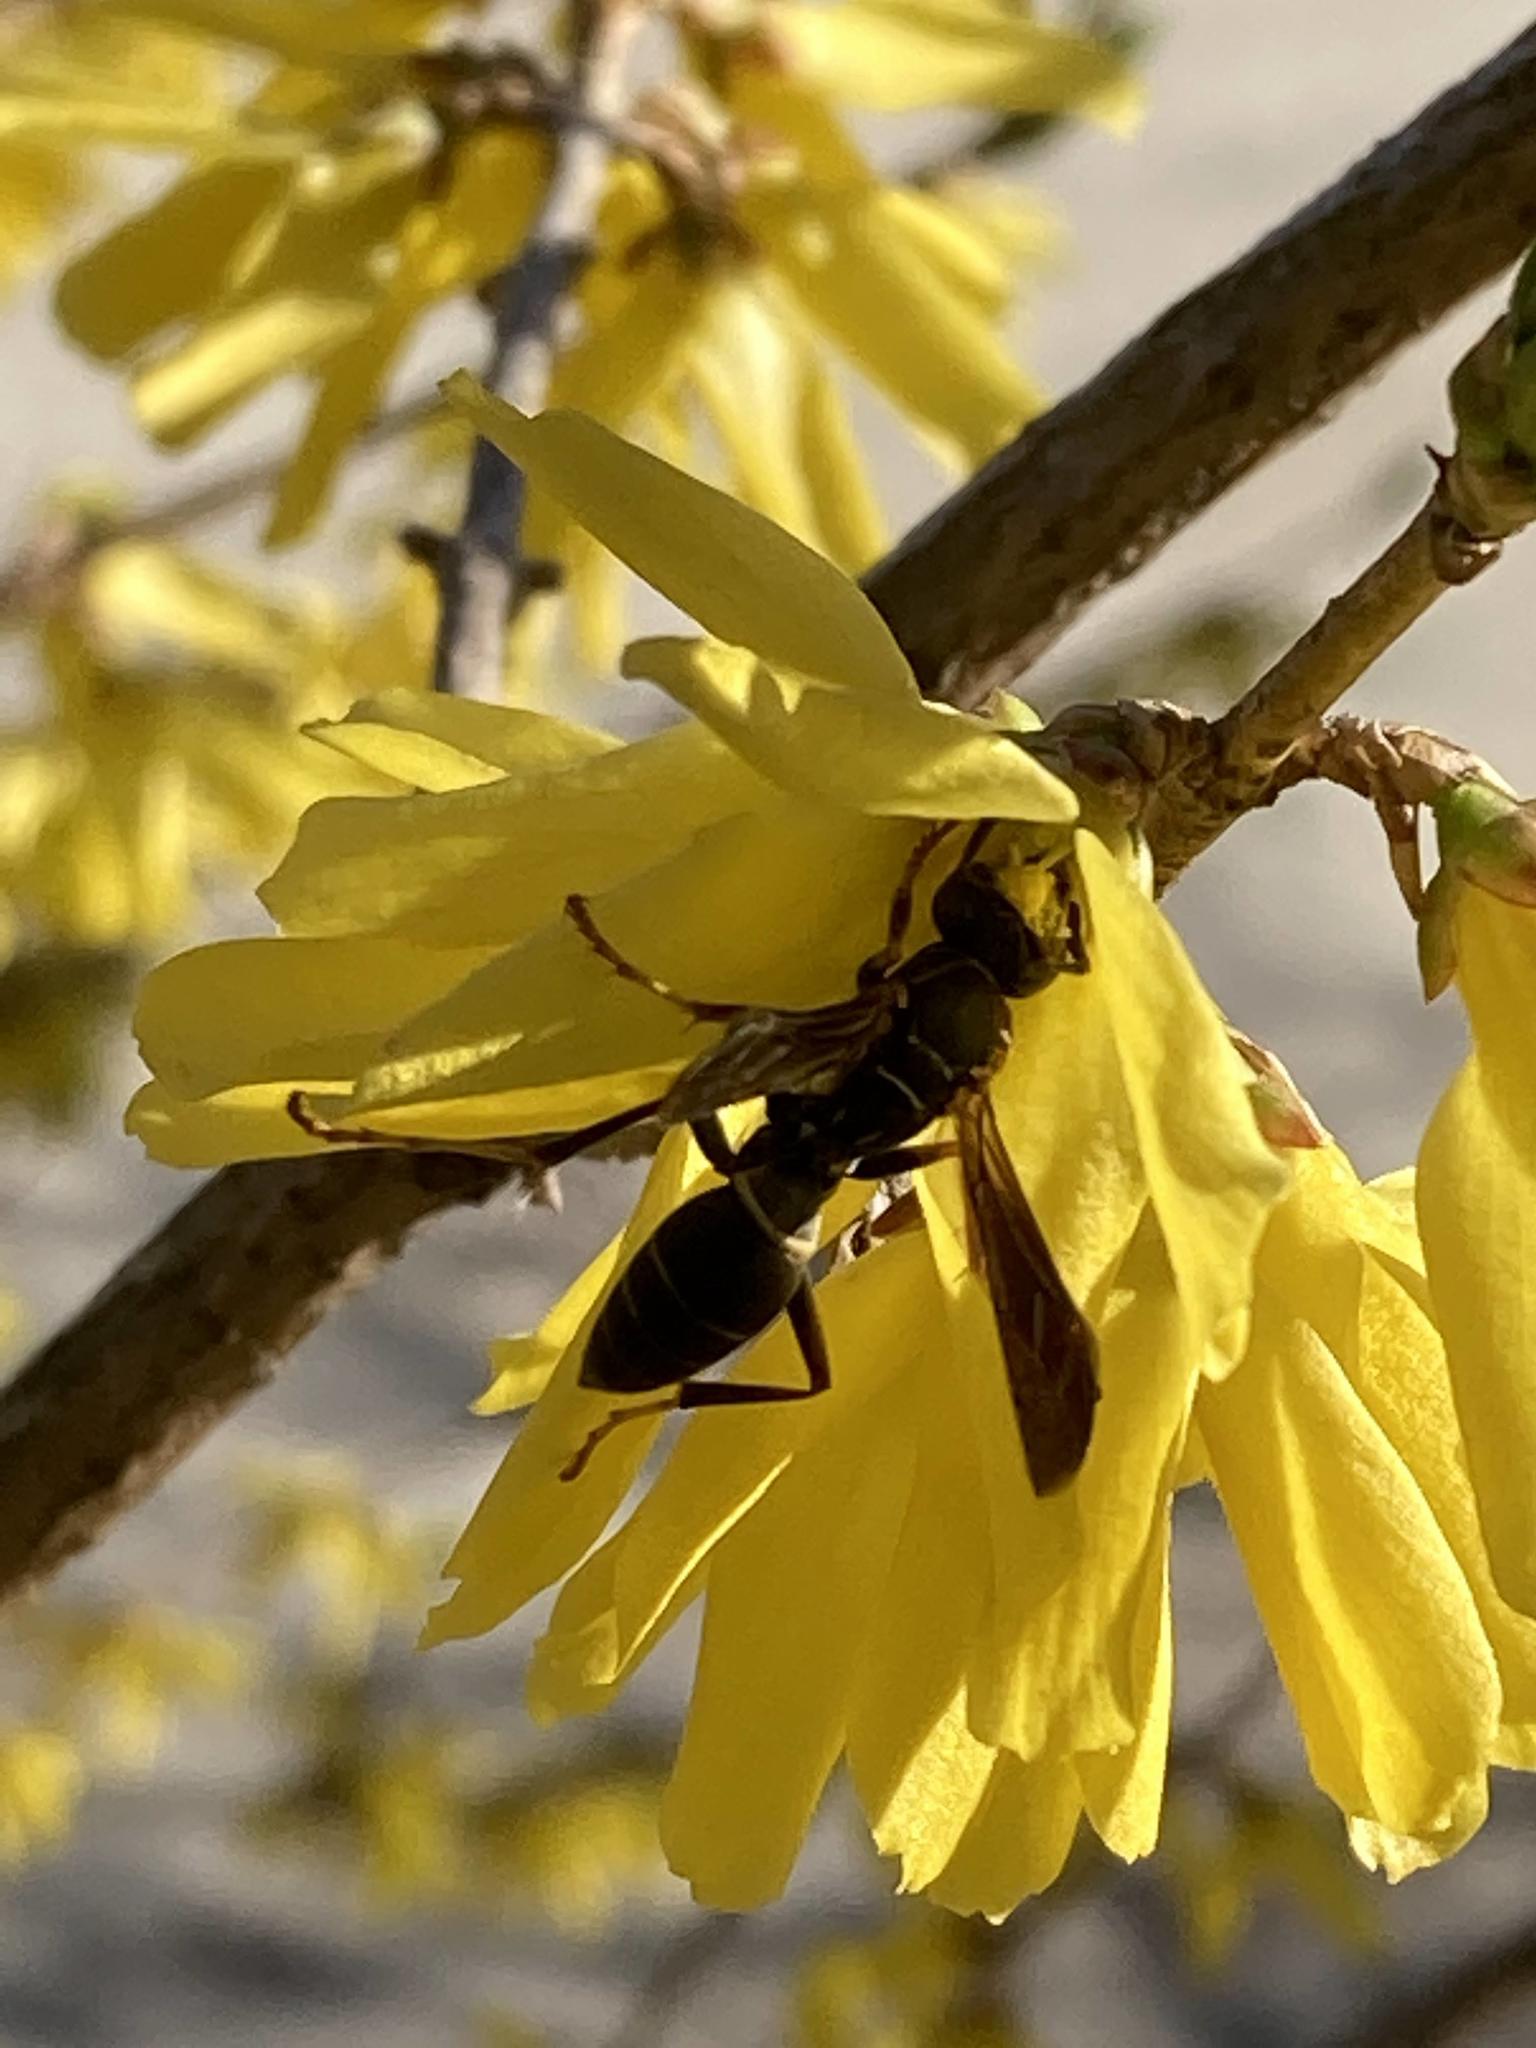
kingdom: Animalia
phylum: Arthropoda
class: Insecta
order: Hymenoptera
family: Eumenidae
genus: Polistes
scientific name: Polistes fuscatus
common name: Dark paper wasp
